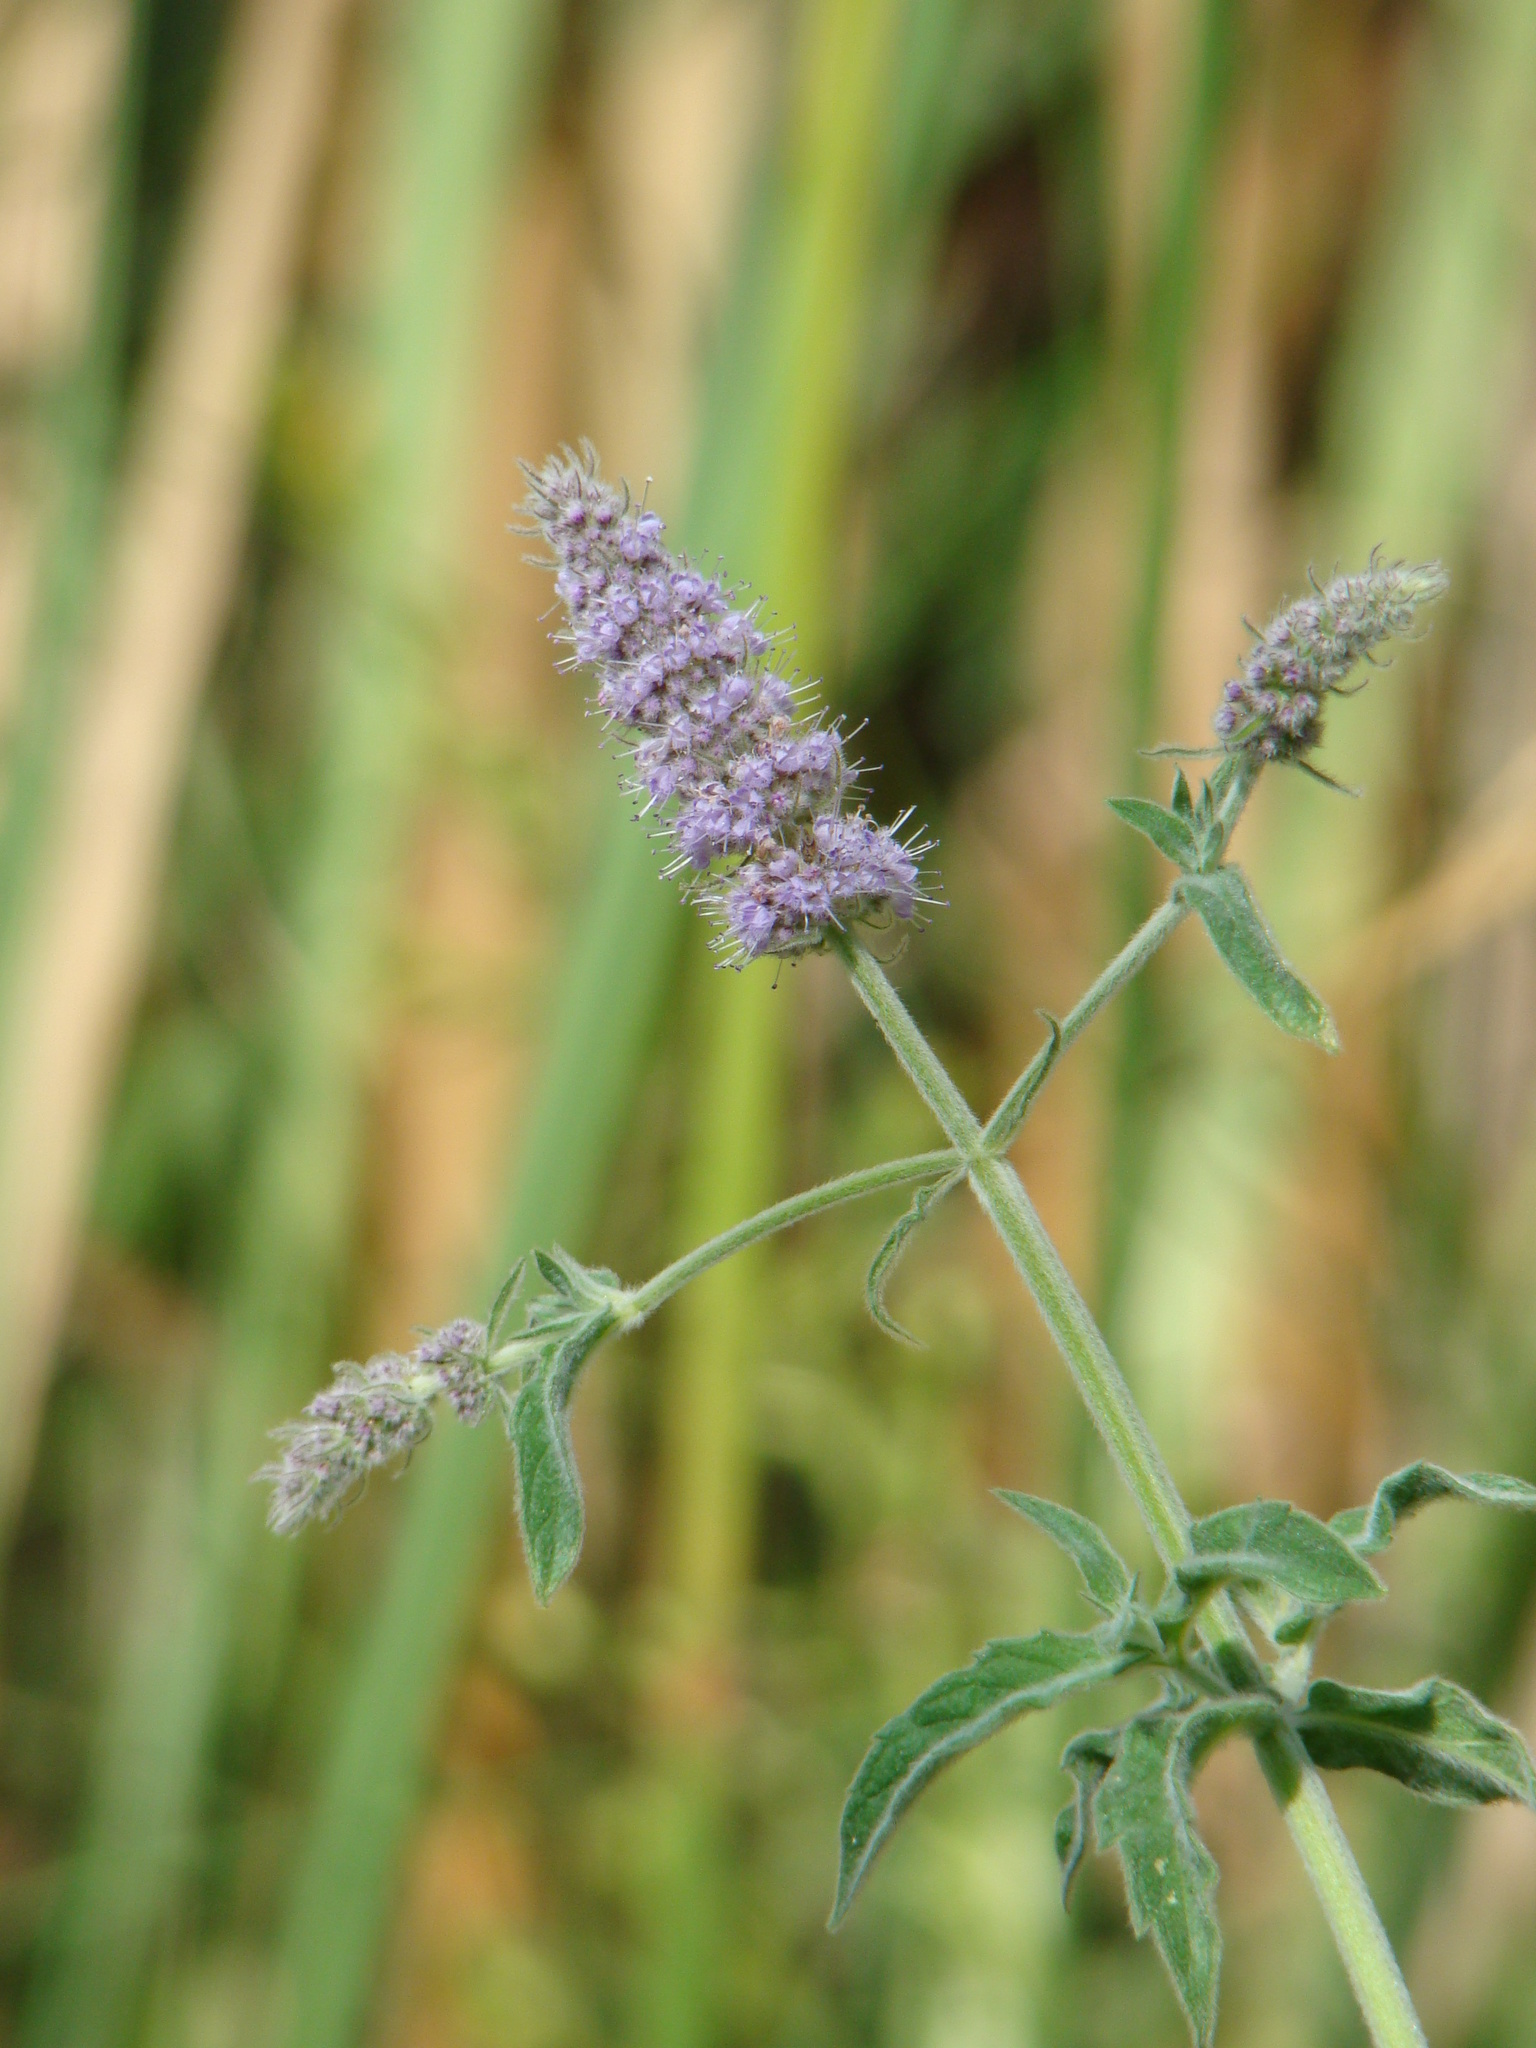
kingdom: Plantae
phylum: Tracheophyta
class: Magnoliopsida
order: Lamiales
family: Lamiaceae
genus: Mentha
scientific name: Mentha longifolia
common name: Horse mint
